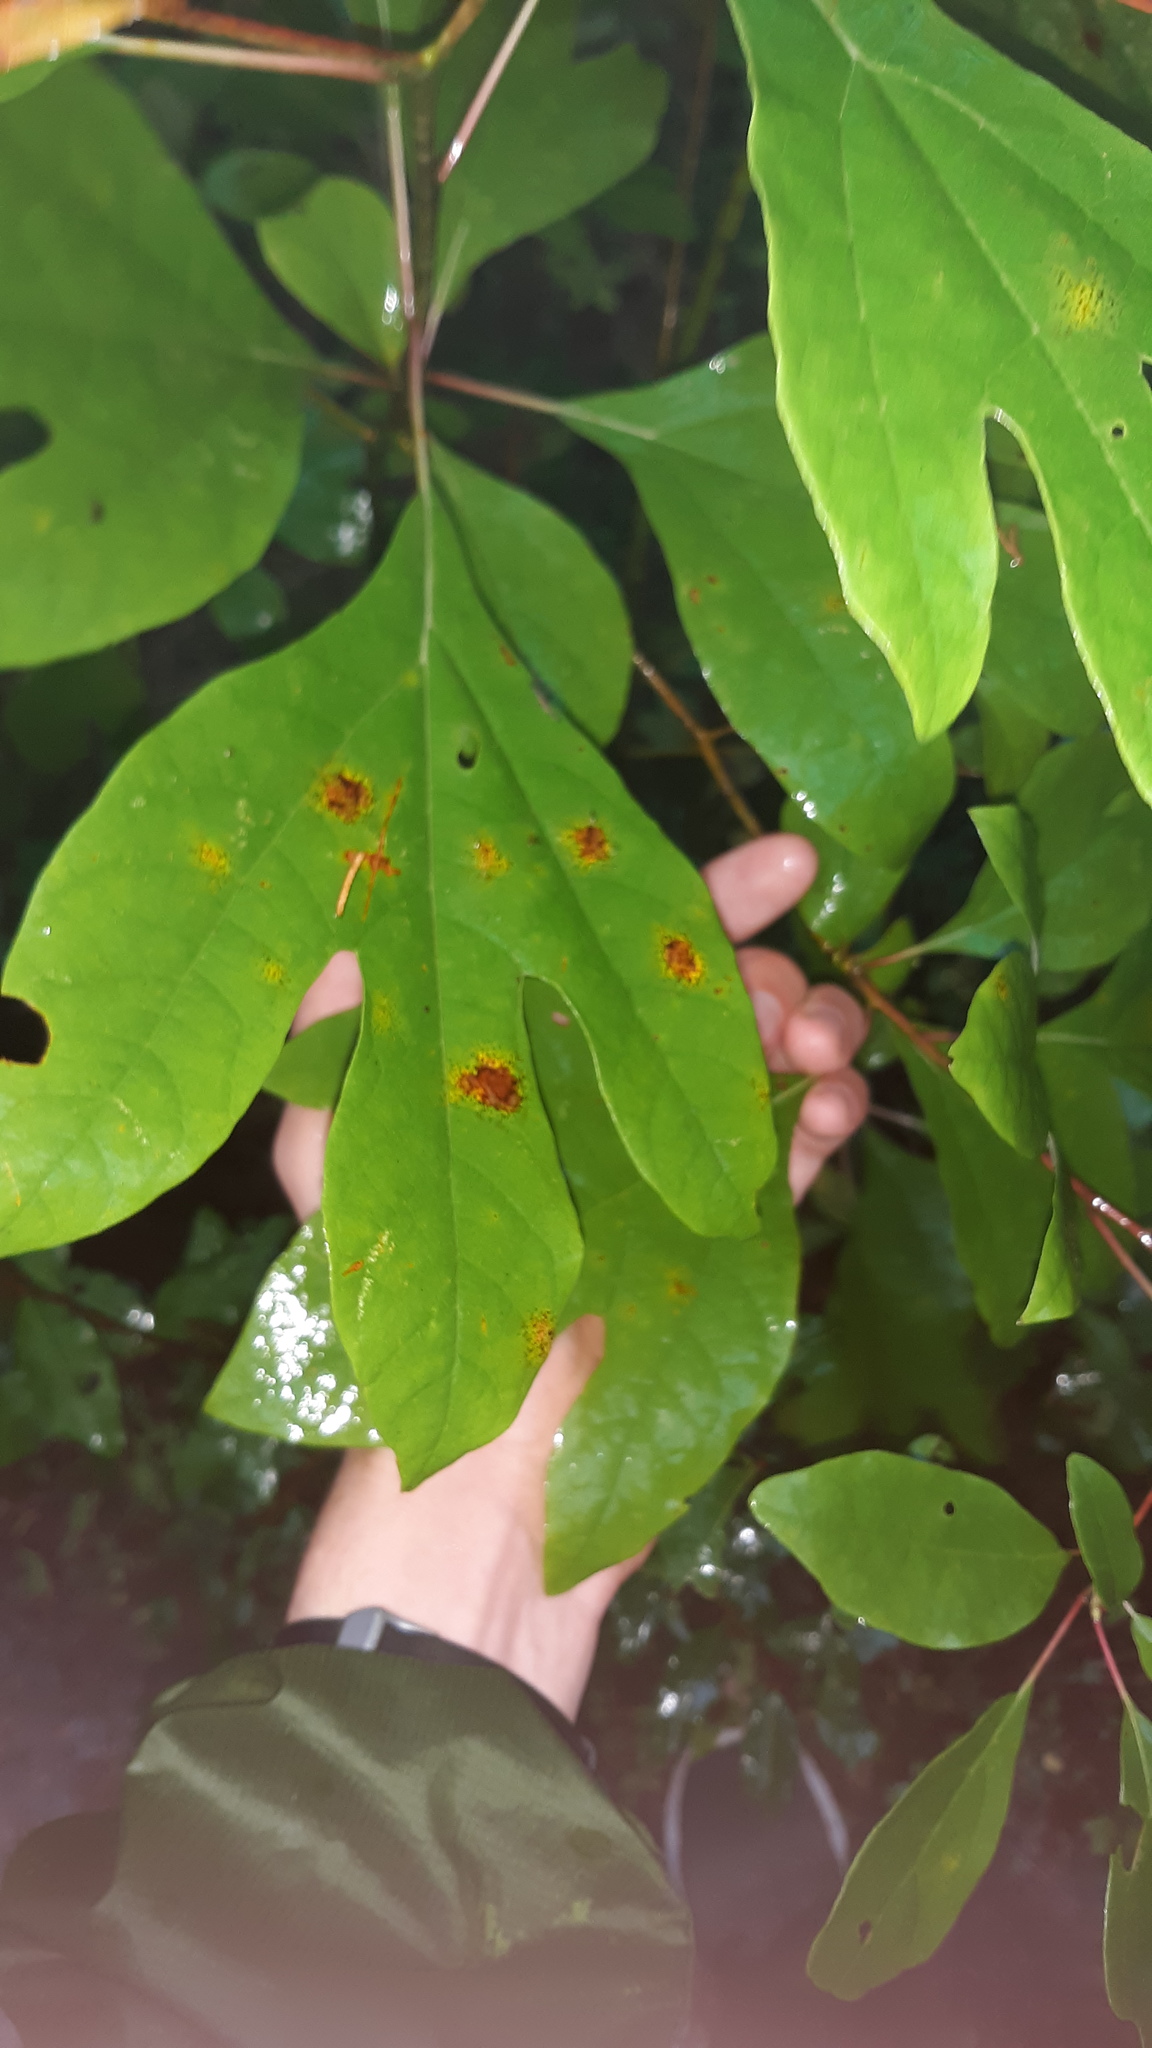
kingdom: Plantae
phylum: Tracheophyta
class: Magnoliopsida
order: Laurales
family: Lauraceae
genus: Sassafras
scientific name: Sassafras albidum
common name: Sassafras
